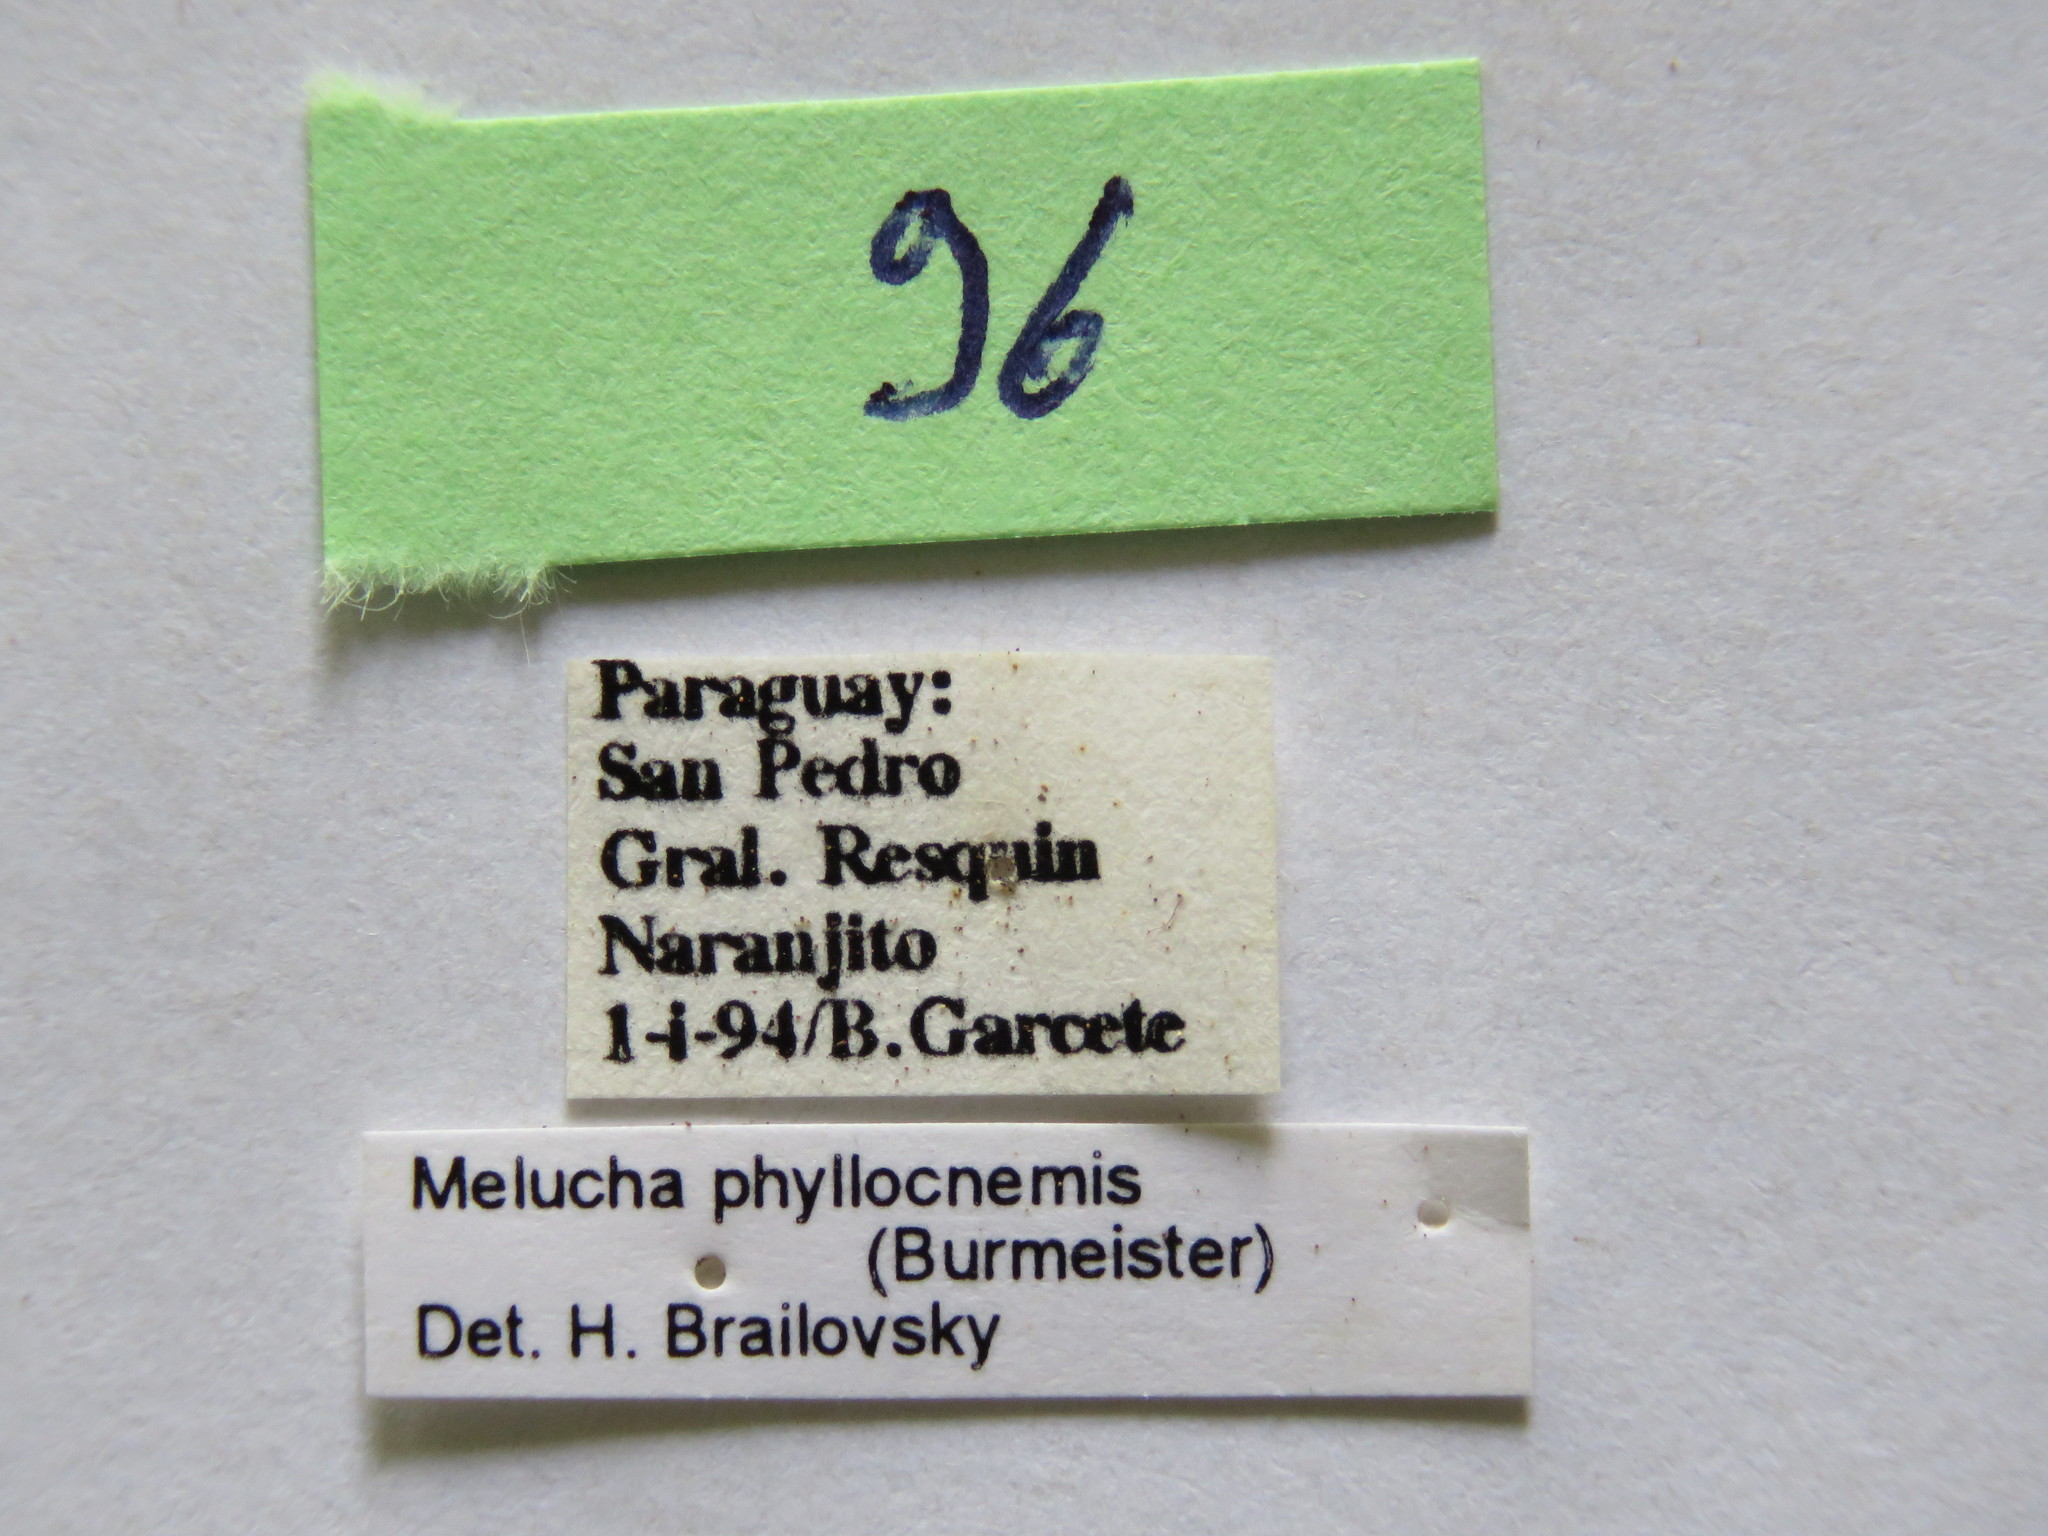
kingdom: Animalia
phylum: Arthropoda
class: Insecta
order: Hemiptera
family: Coreidae
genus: Melucha
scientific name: Melucha phyllocnemis
